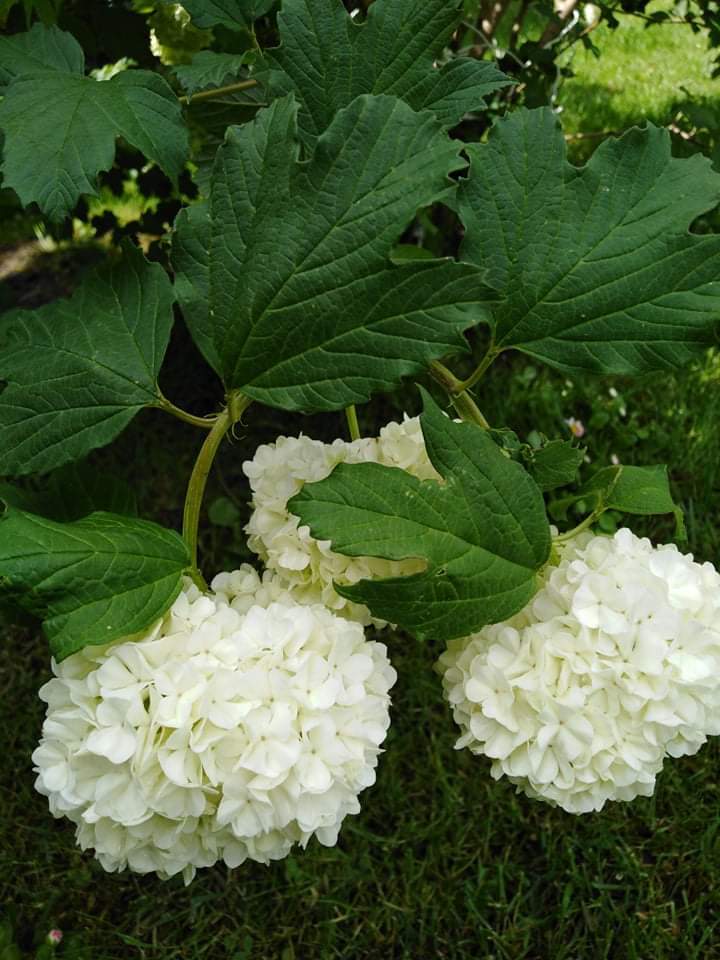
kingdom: Plantae
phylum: Tracheophyta
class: Magnoliopsida
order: Dipsacales
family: Viburnaceae
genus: Viburnum
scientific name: Viburnum opulus
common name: Guelder-rose
